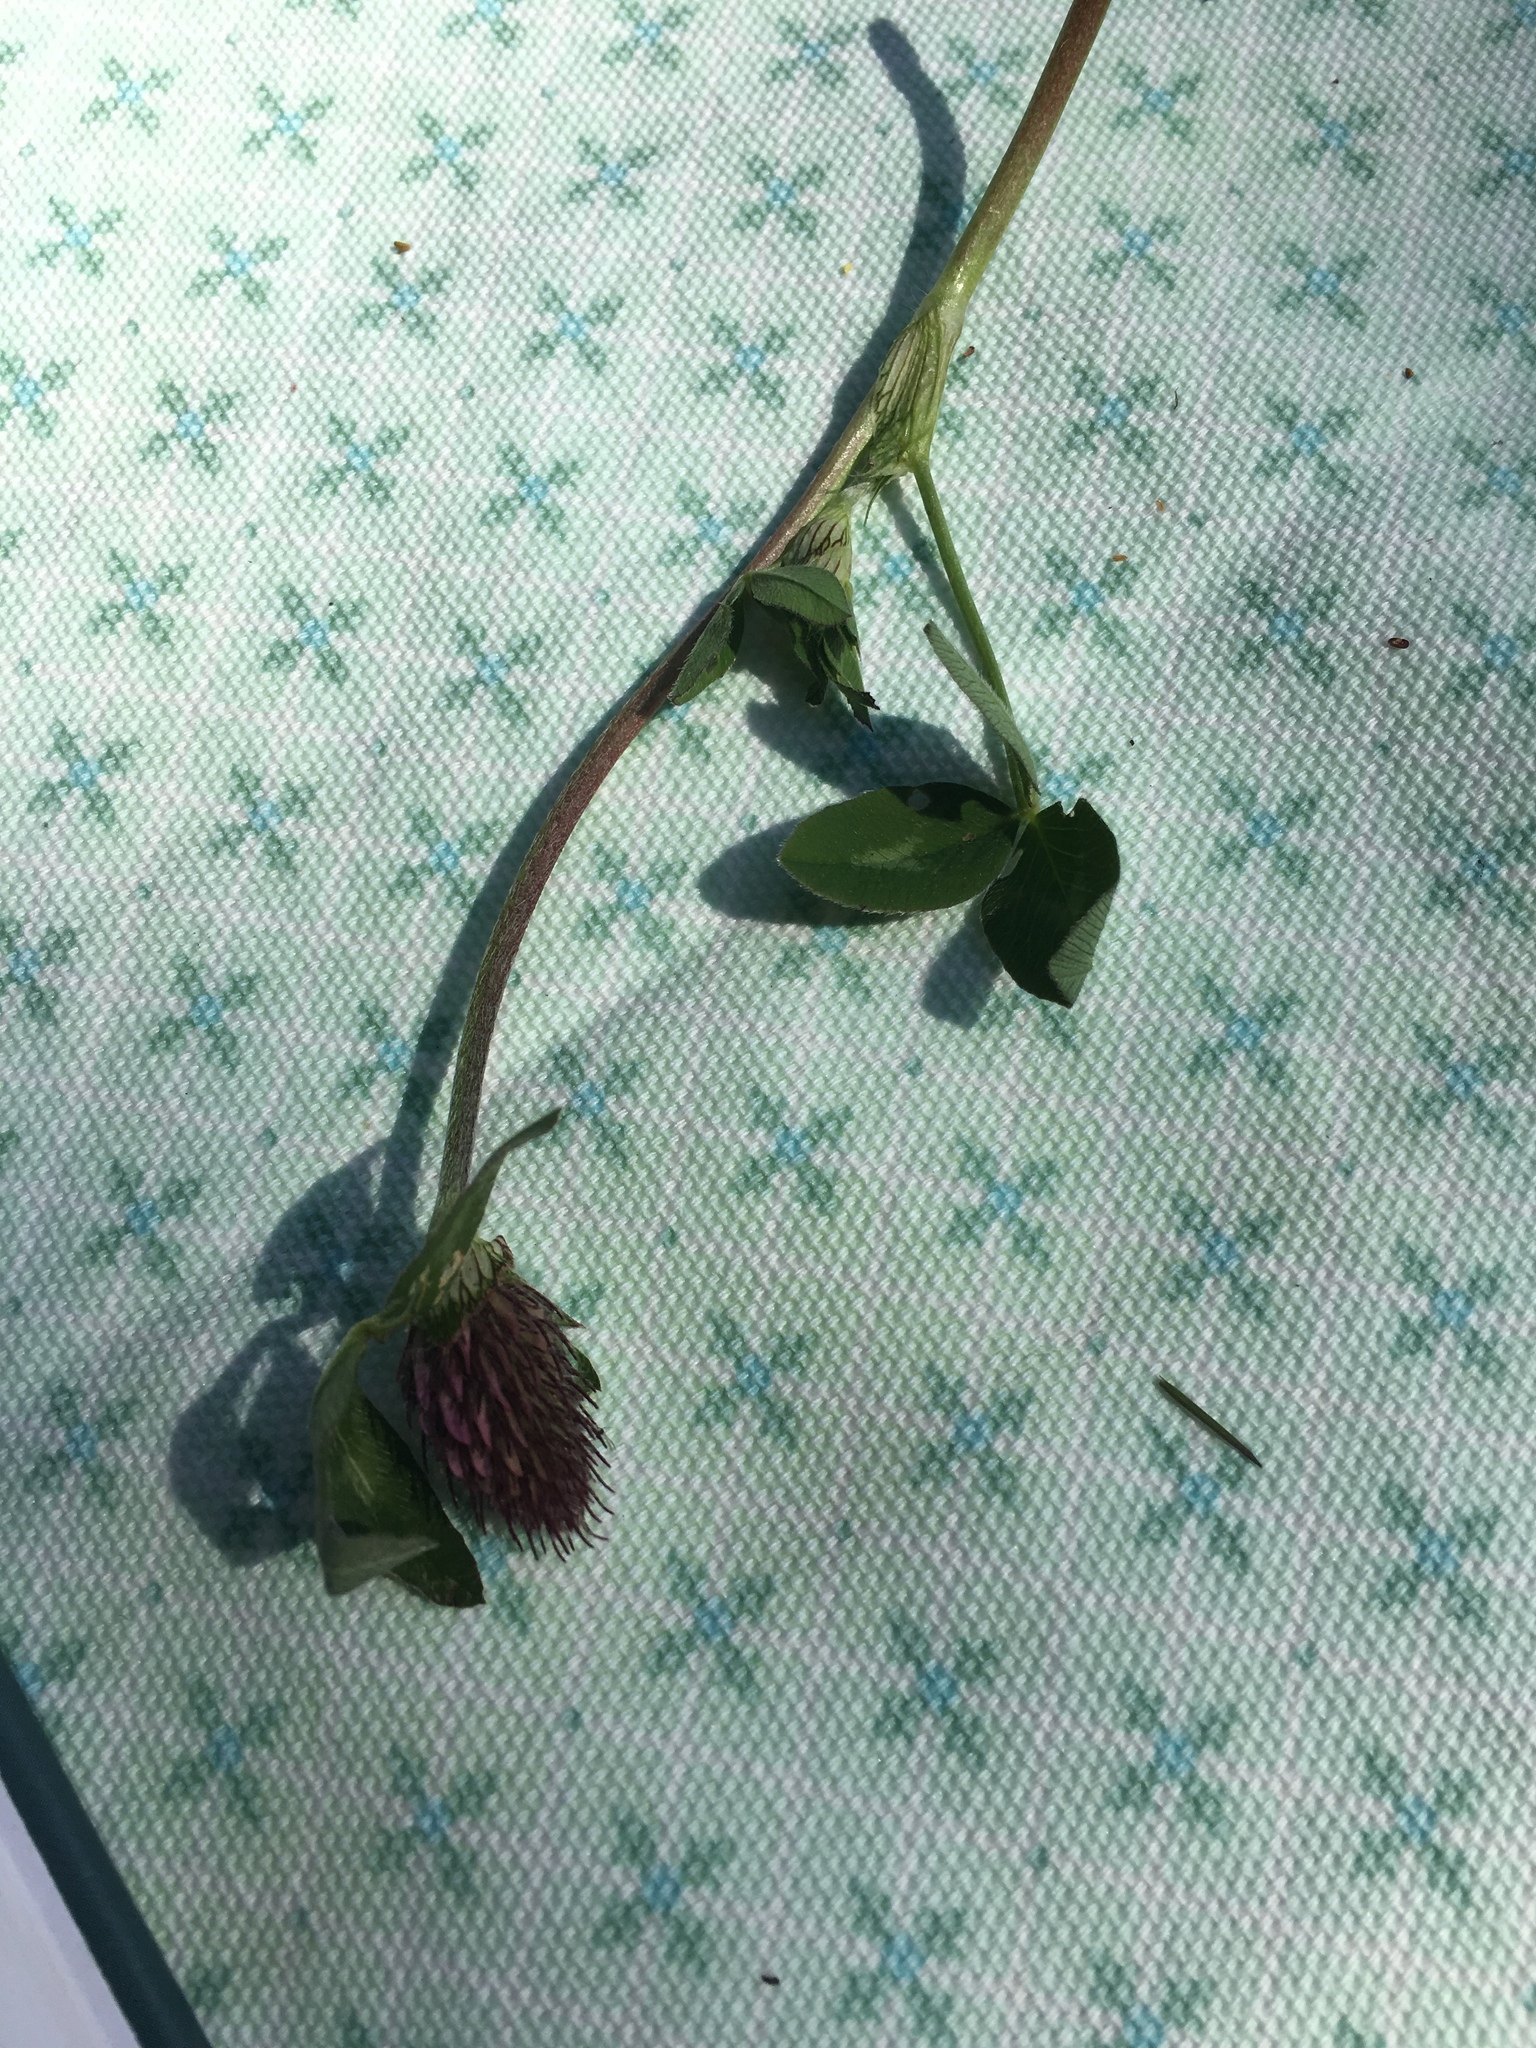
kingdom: Plantae
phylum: Tracheophyta
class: Magnoliopsida
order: Fabales
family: Fabaceae
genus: Trifolium
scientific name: Trifolium pratense
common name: Red clover
